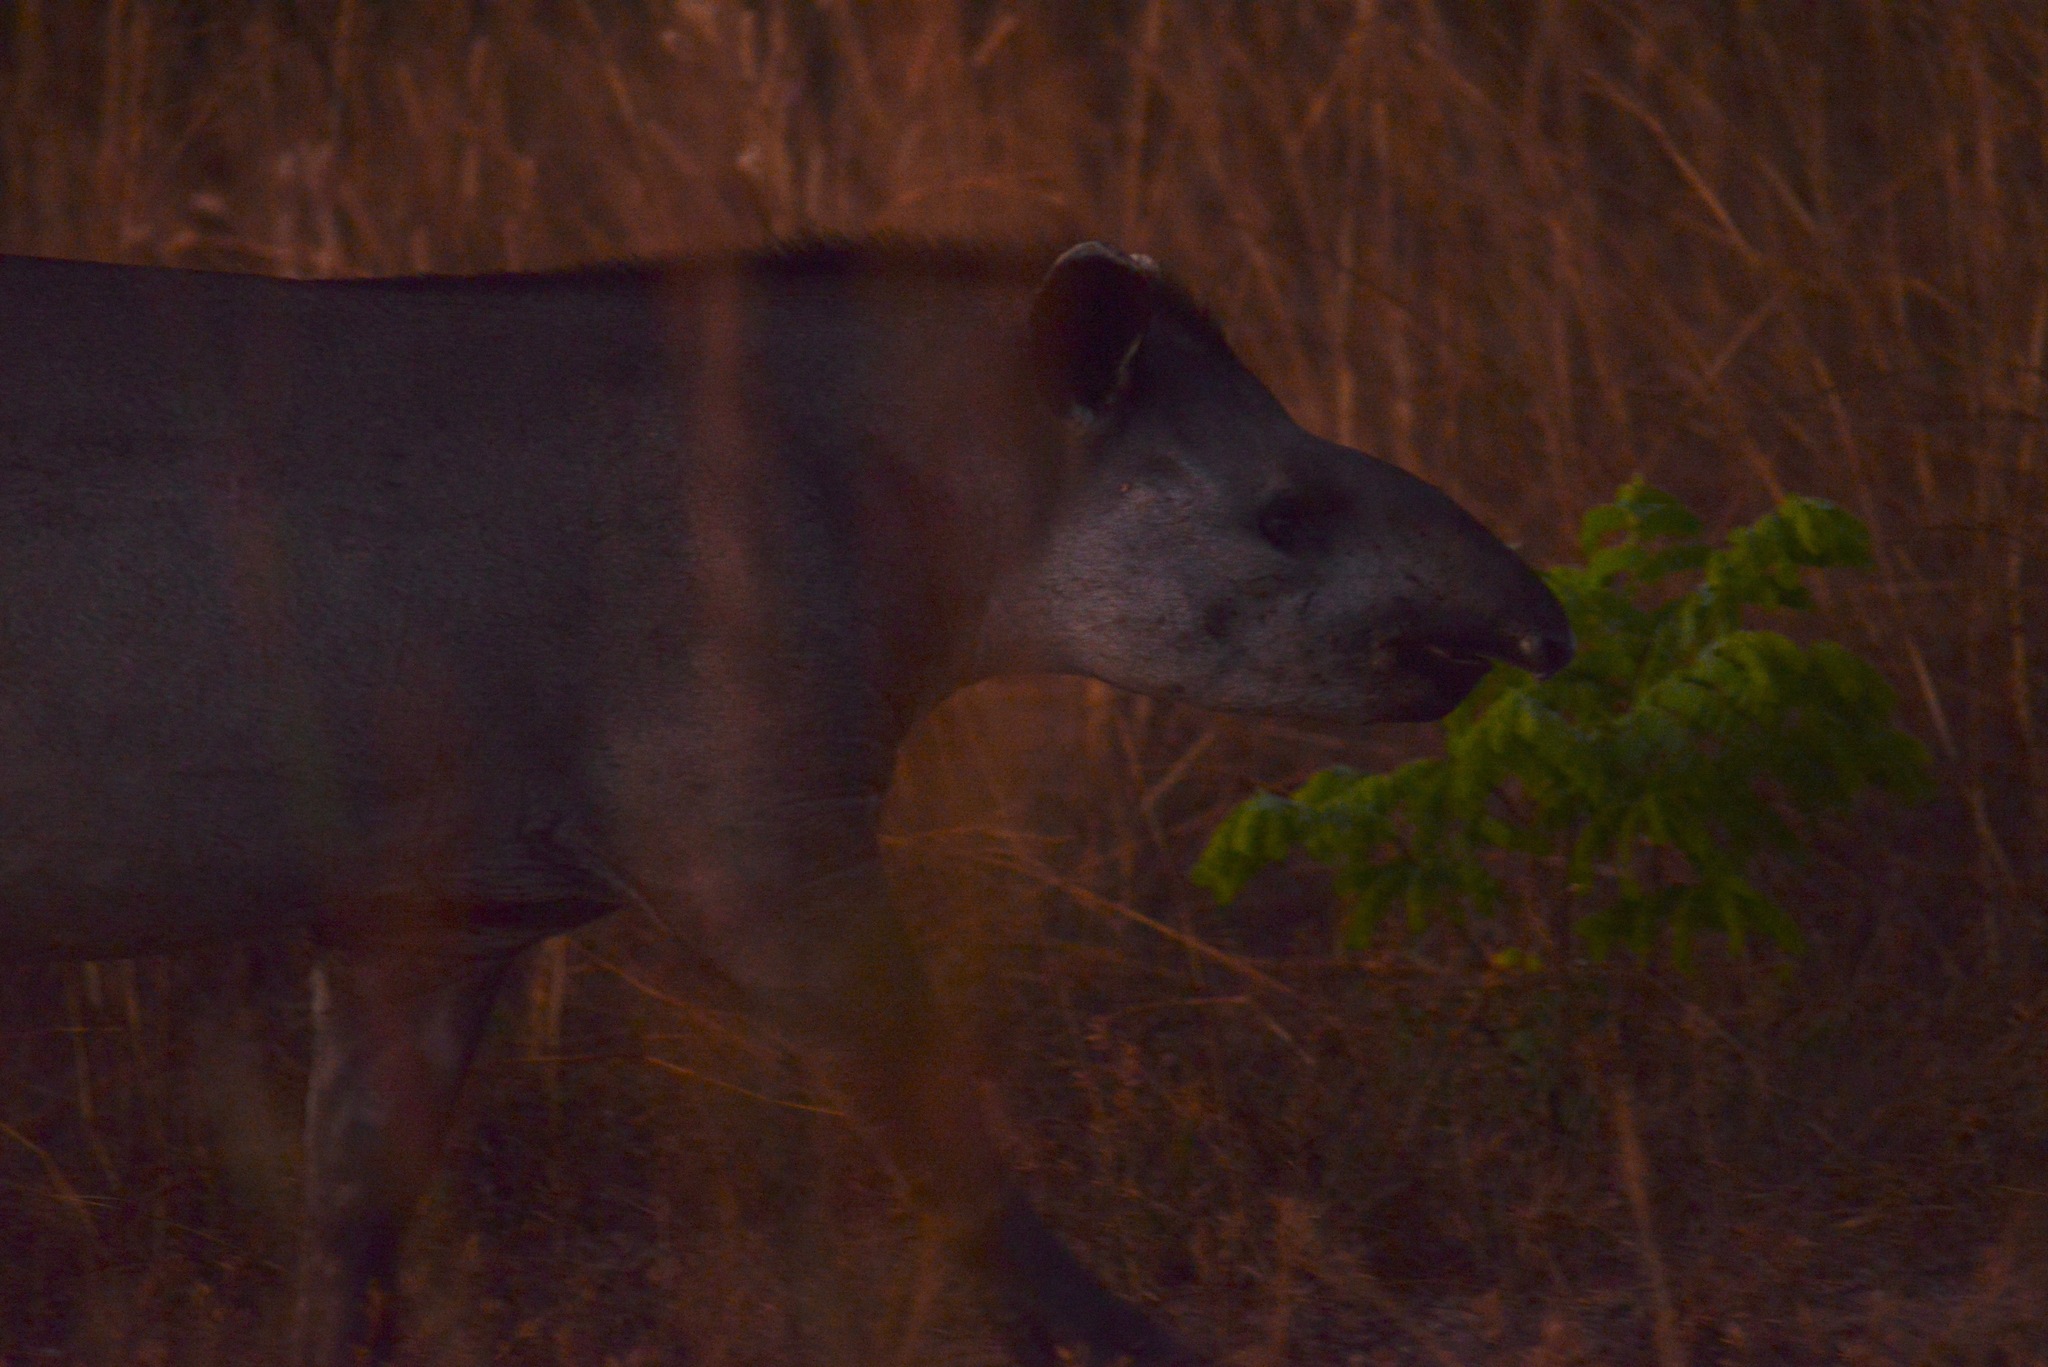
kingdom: Animalia
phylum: Chordata
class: Mammalia
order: Perissodactyla
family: Tapiridae
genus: Tapirus
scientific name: Tapirus terrestris
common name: Brazilian tapir
